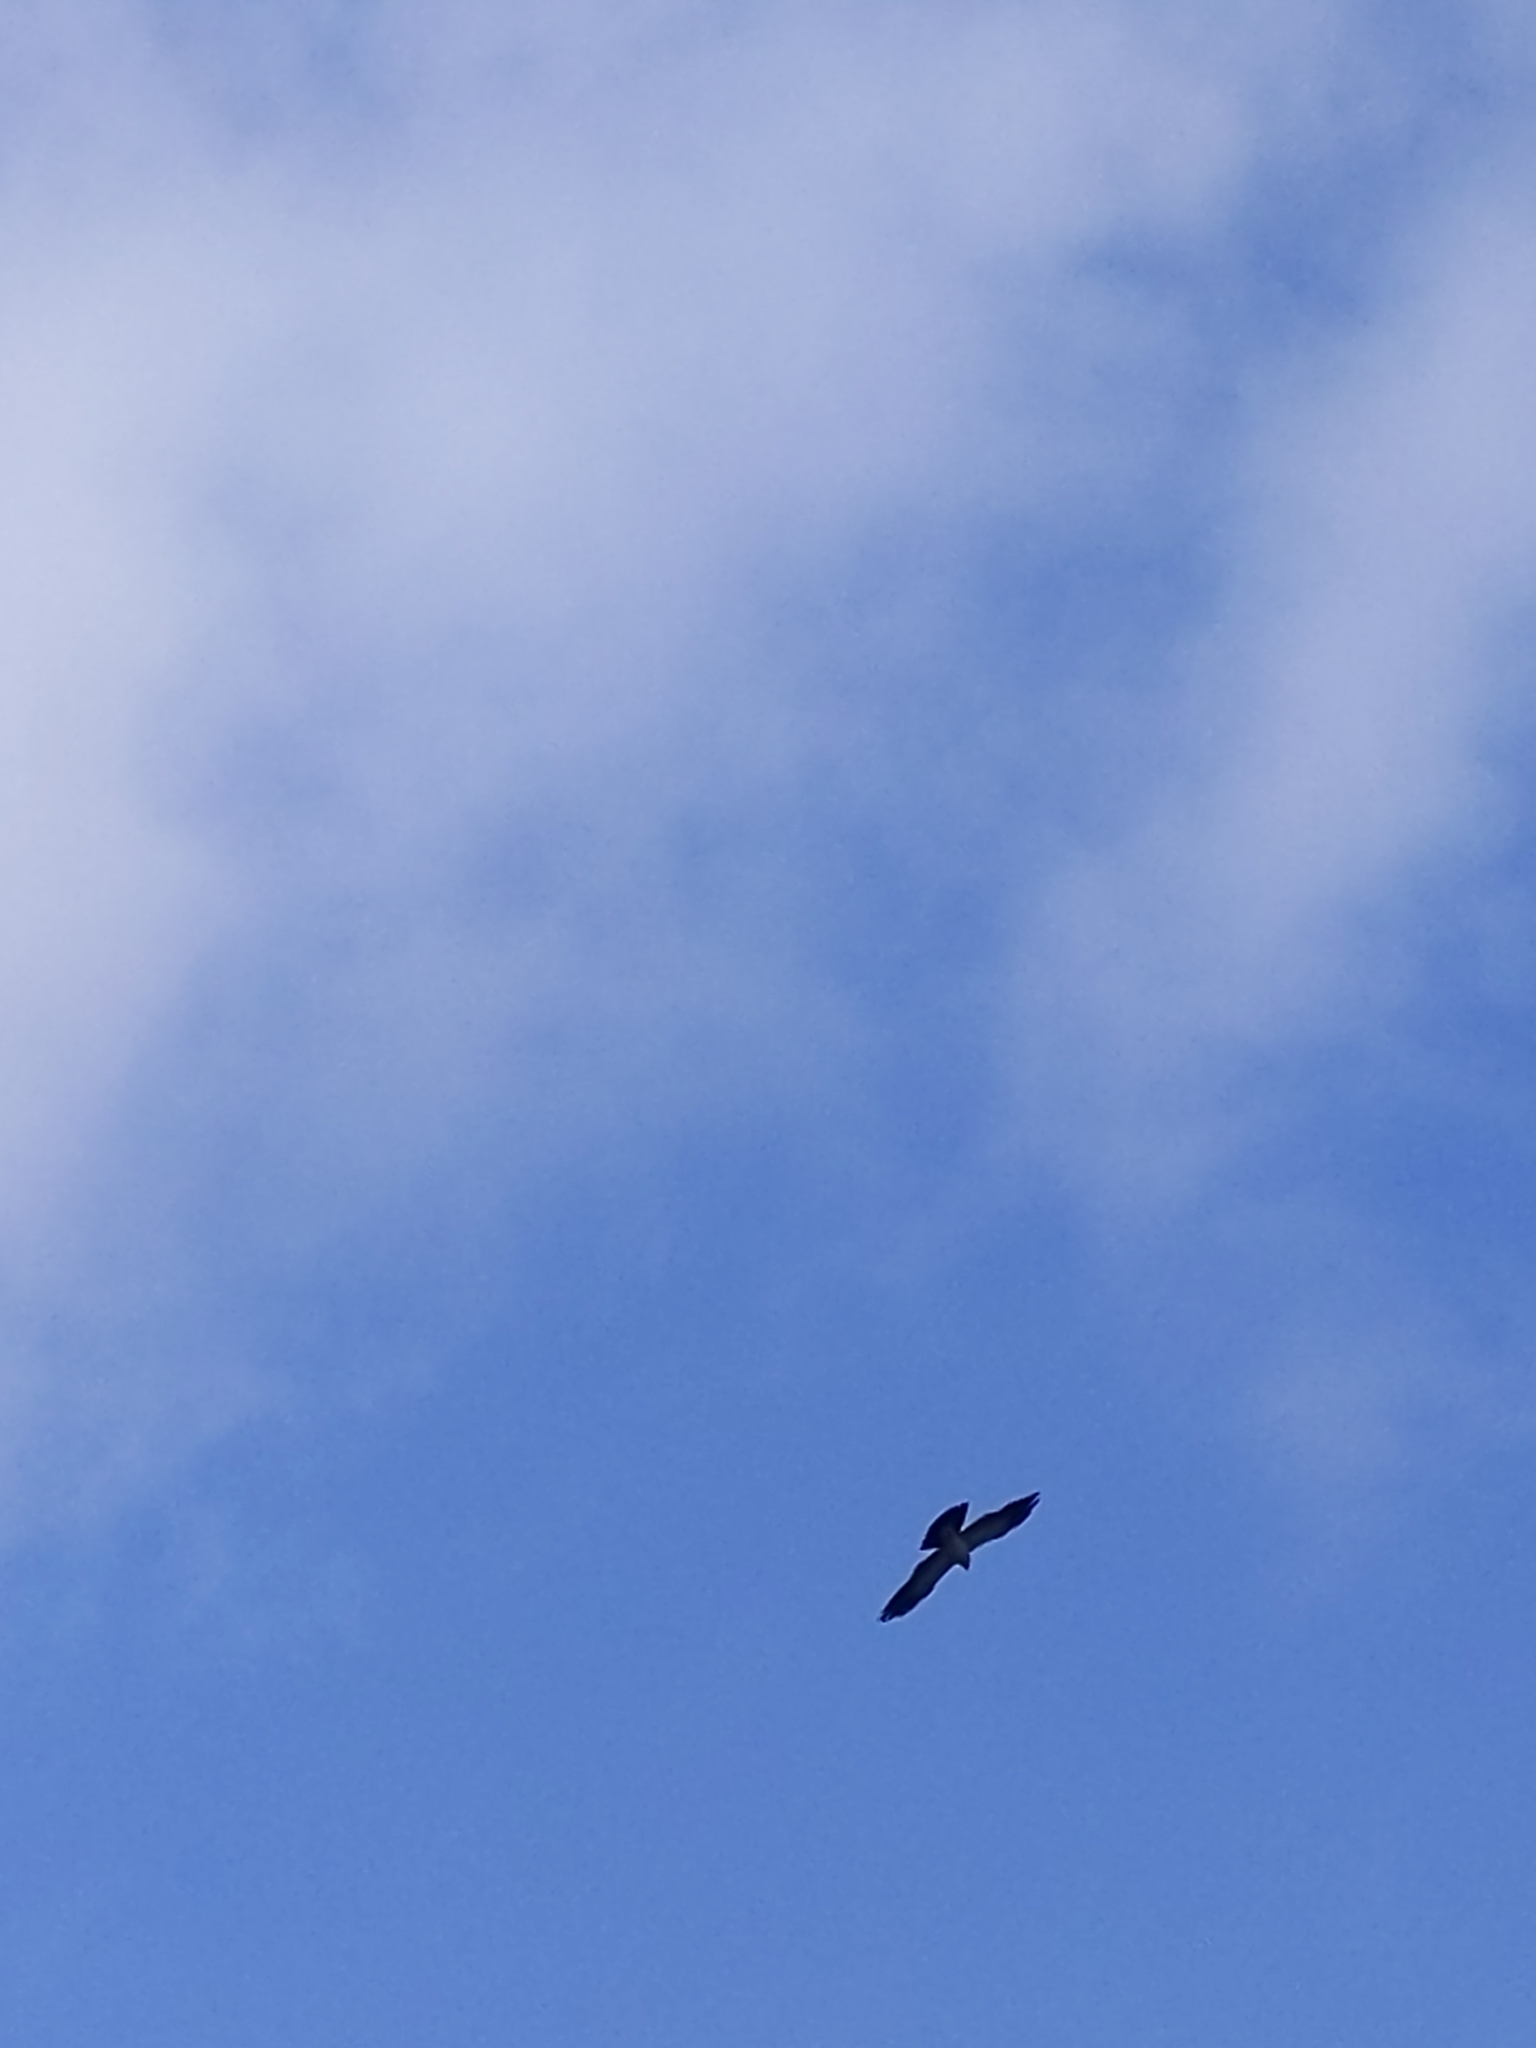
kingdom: Animalia
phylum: Chordata
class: Aves
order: Accipitriformes
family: Accipitridae
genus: Ictinia
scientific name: Ictinia mississippiensis
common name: Mississippi kite
